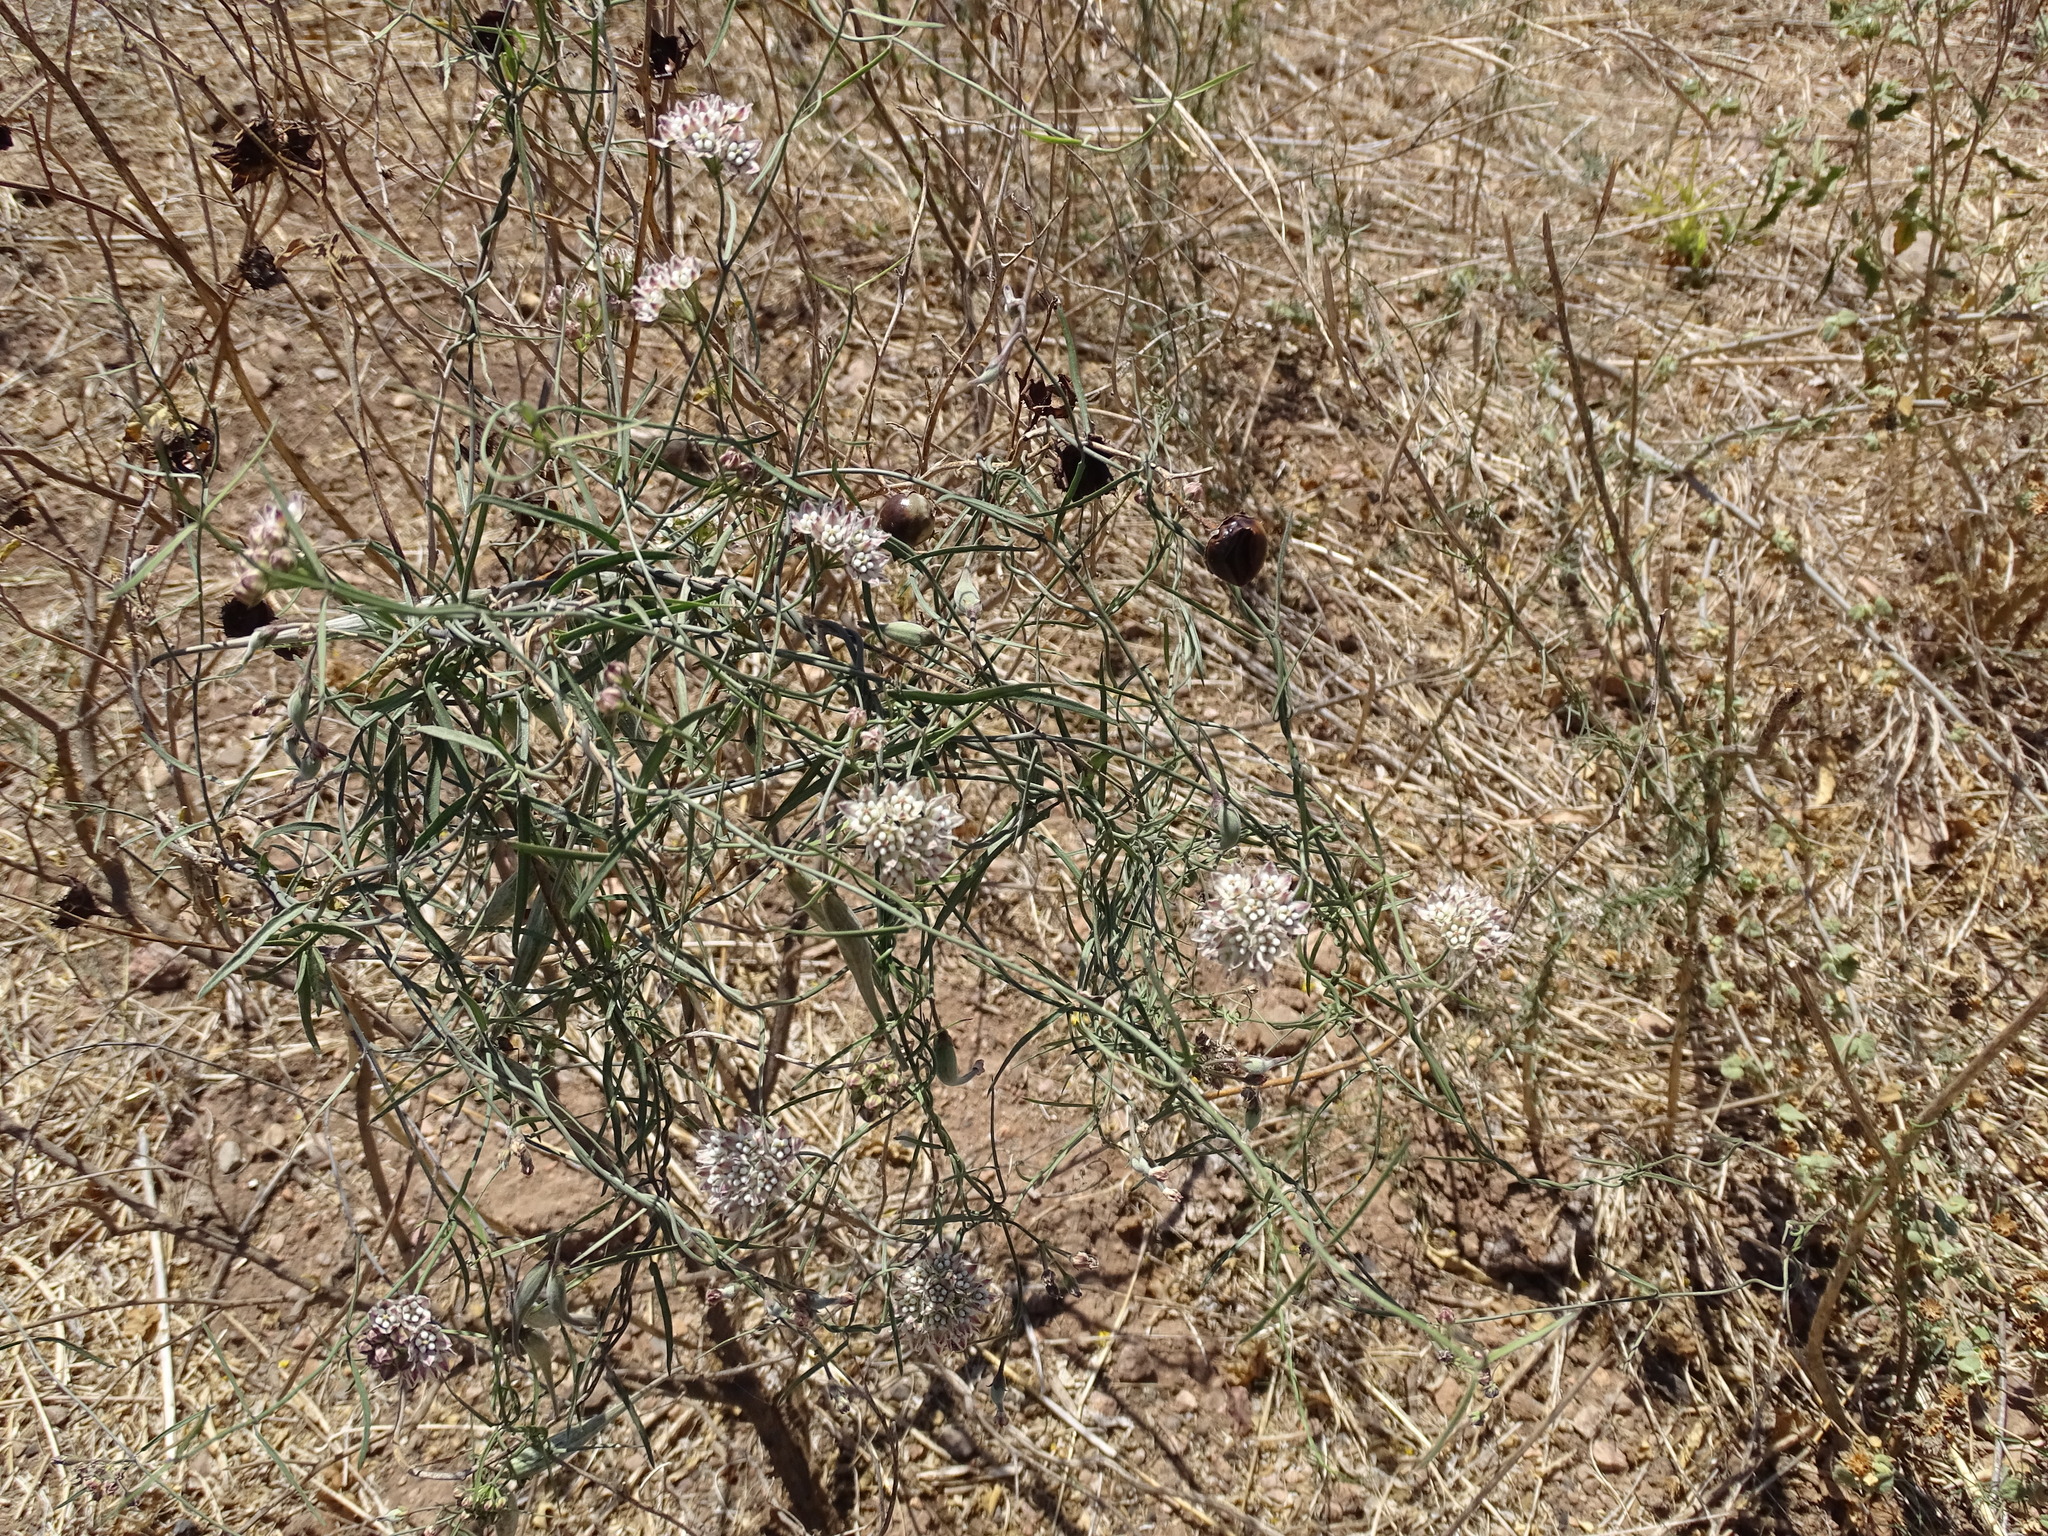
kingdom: Plantae
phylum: Tracheophyta
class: Magnoliopsida
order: Gentianales
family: Apocynaceae
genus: Funastrum
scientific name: Funastrum heterophyllum
